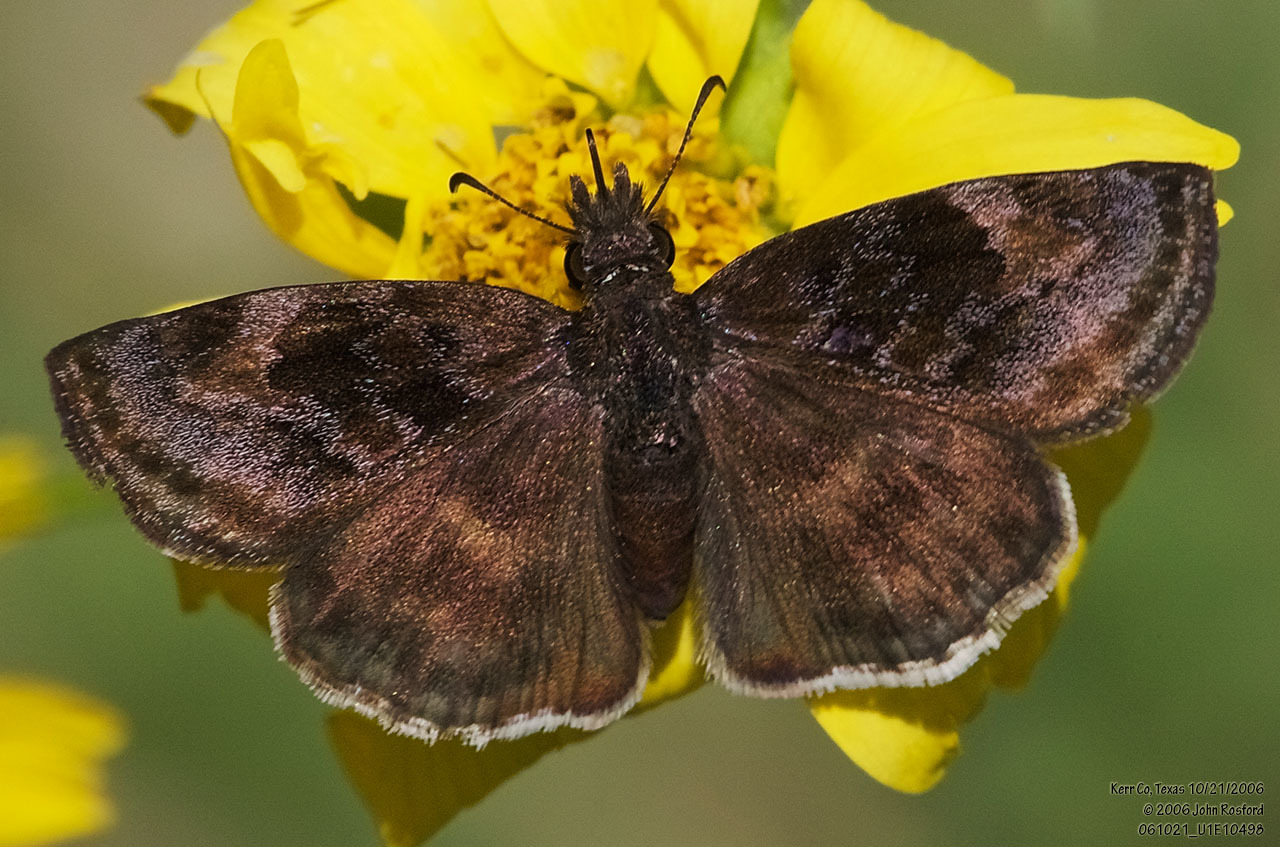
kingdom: Animalia
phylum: Arthropoda
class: Insecta
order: Lepidoptera
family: Hesperiidae
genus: Gesta
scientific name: Gesta gesta
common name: Gesta duskywing
